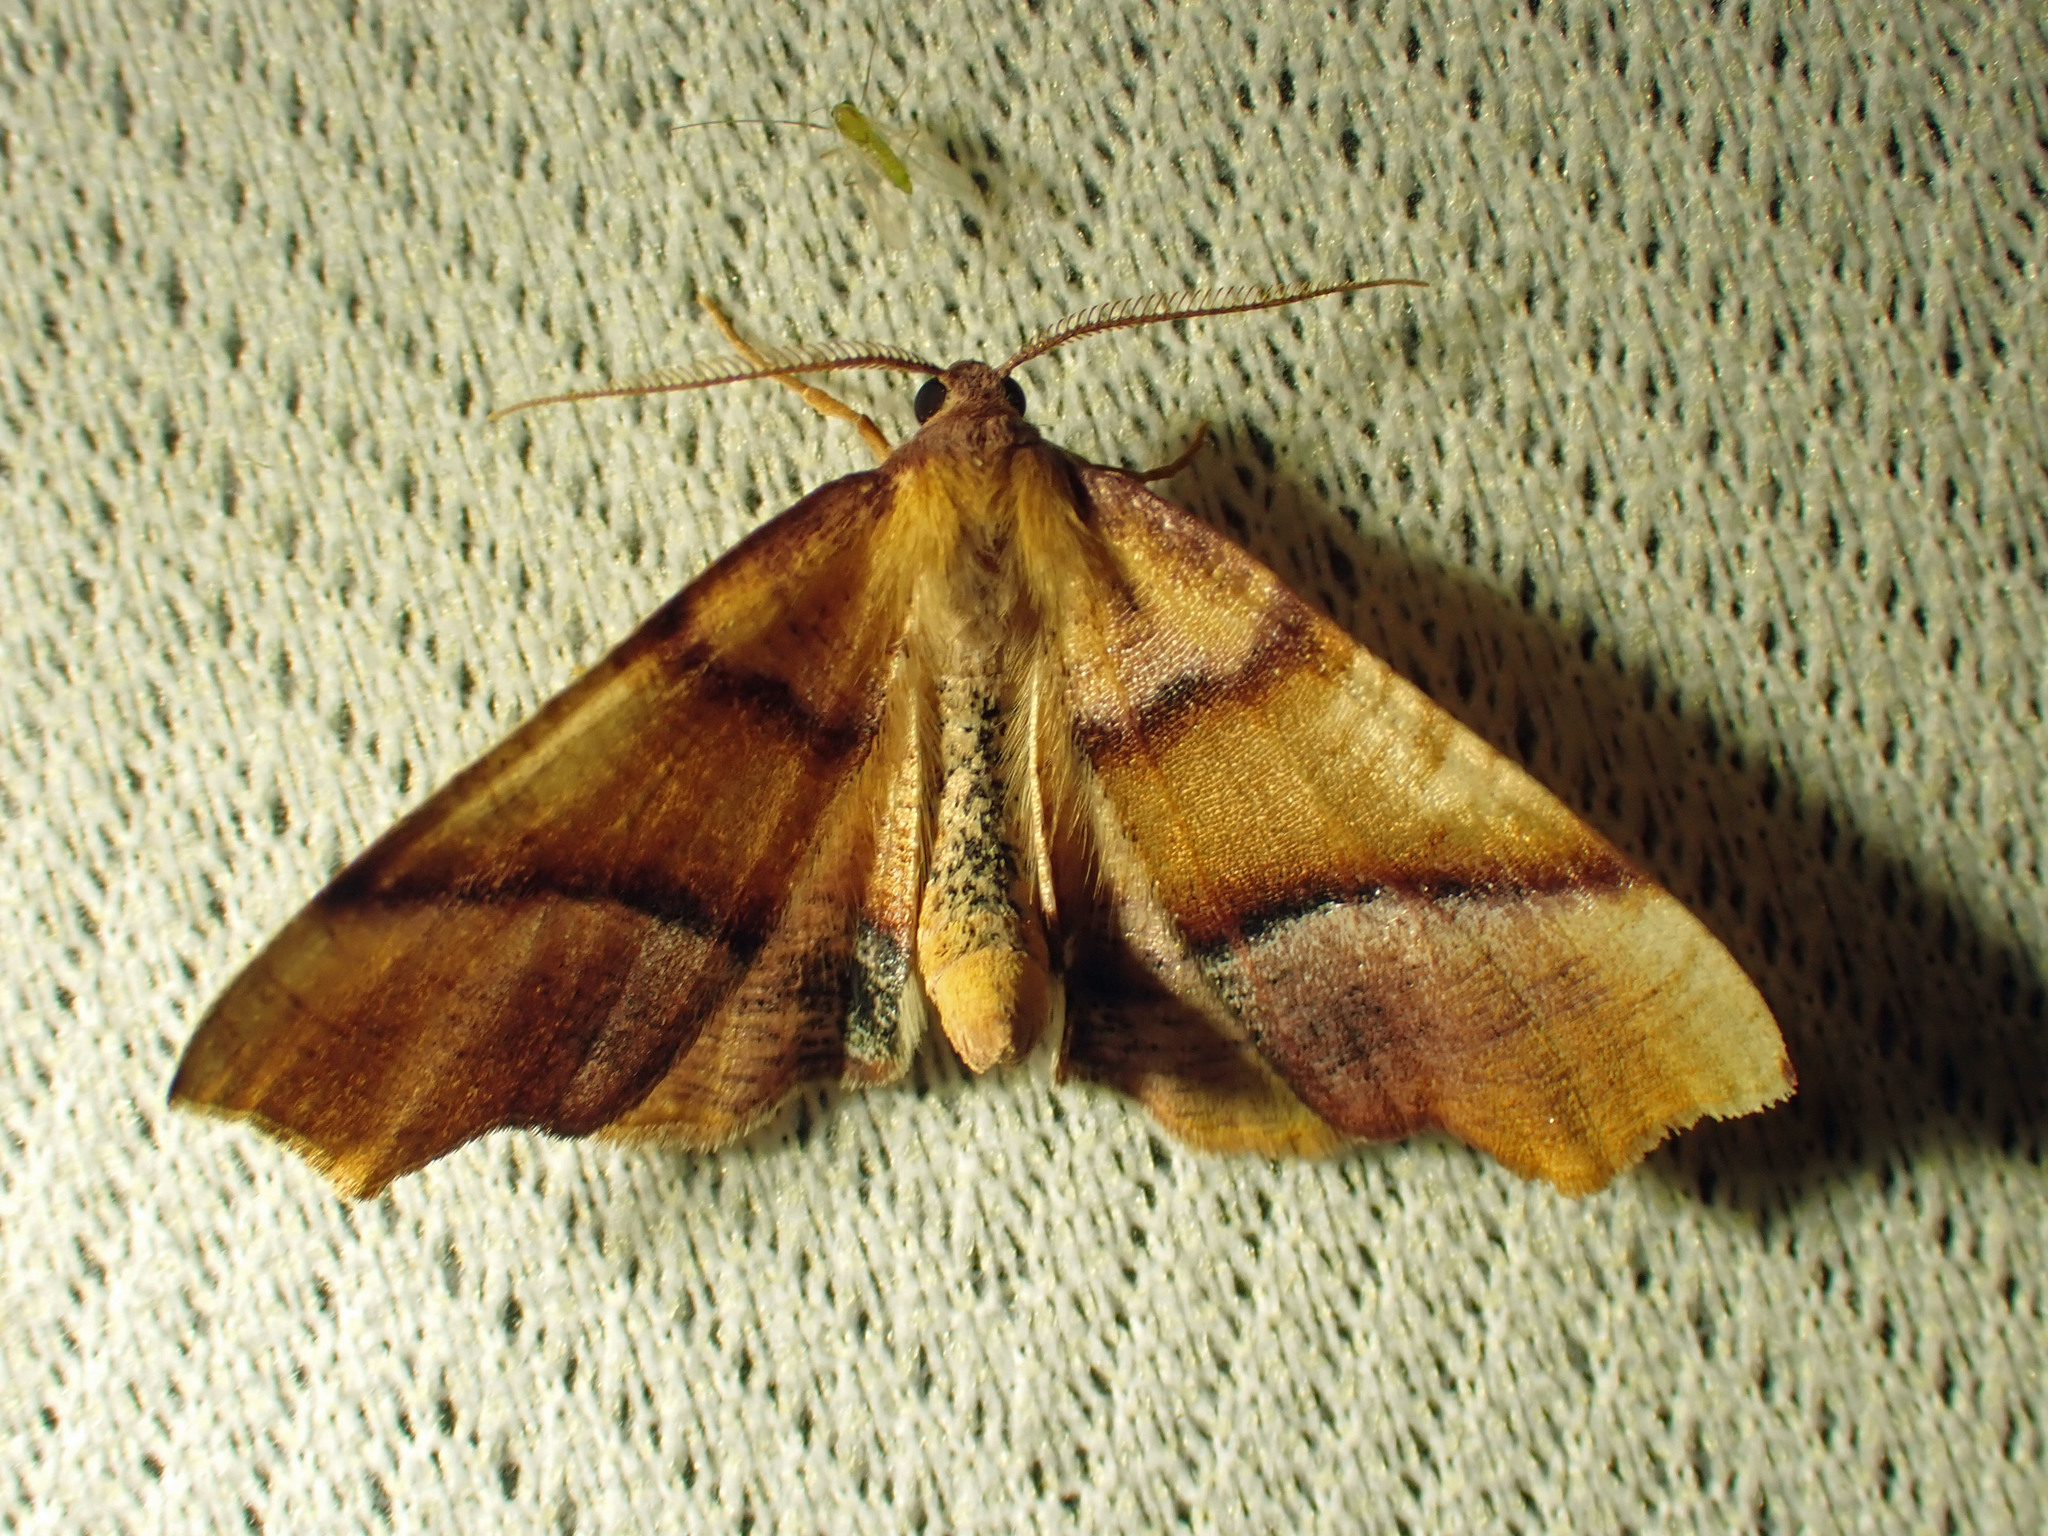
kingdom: Animalia
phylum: Arthropoda
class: Insecta
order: Lepidoptera
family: Geometridae
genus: Plagodis
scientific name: Plagodis phlogosaria
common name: Straight-lined plagodis
